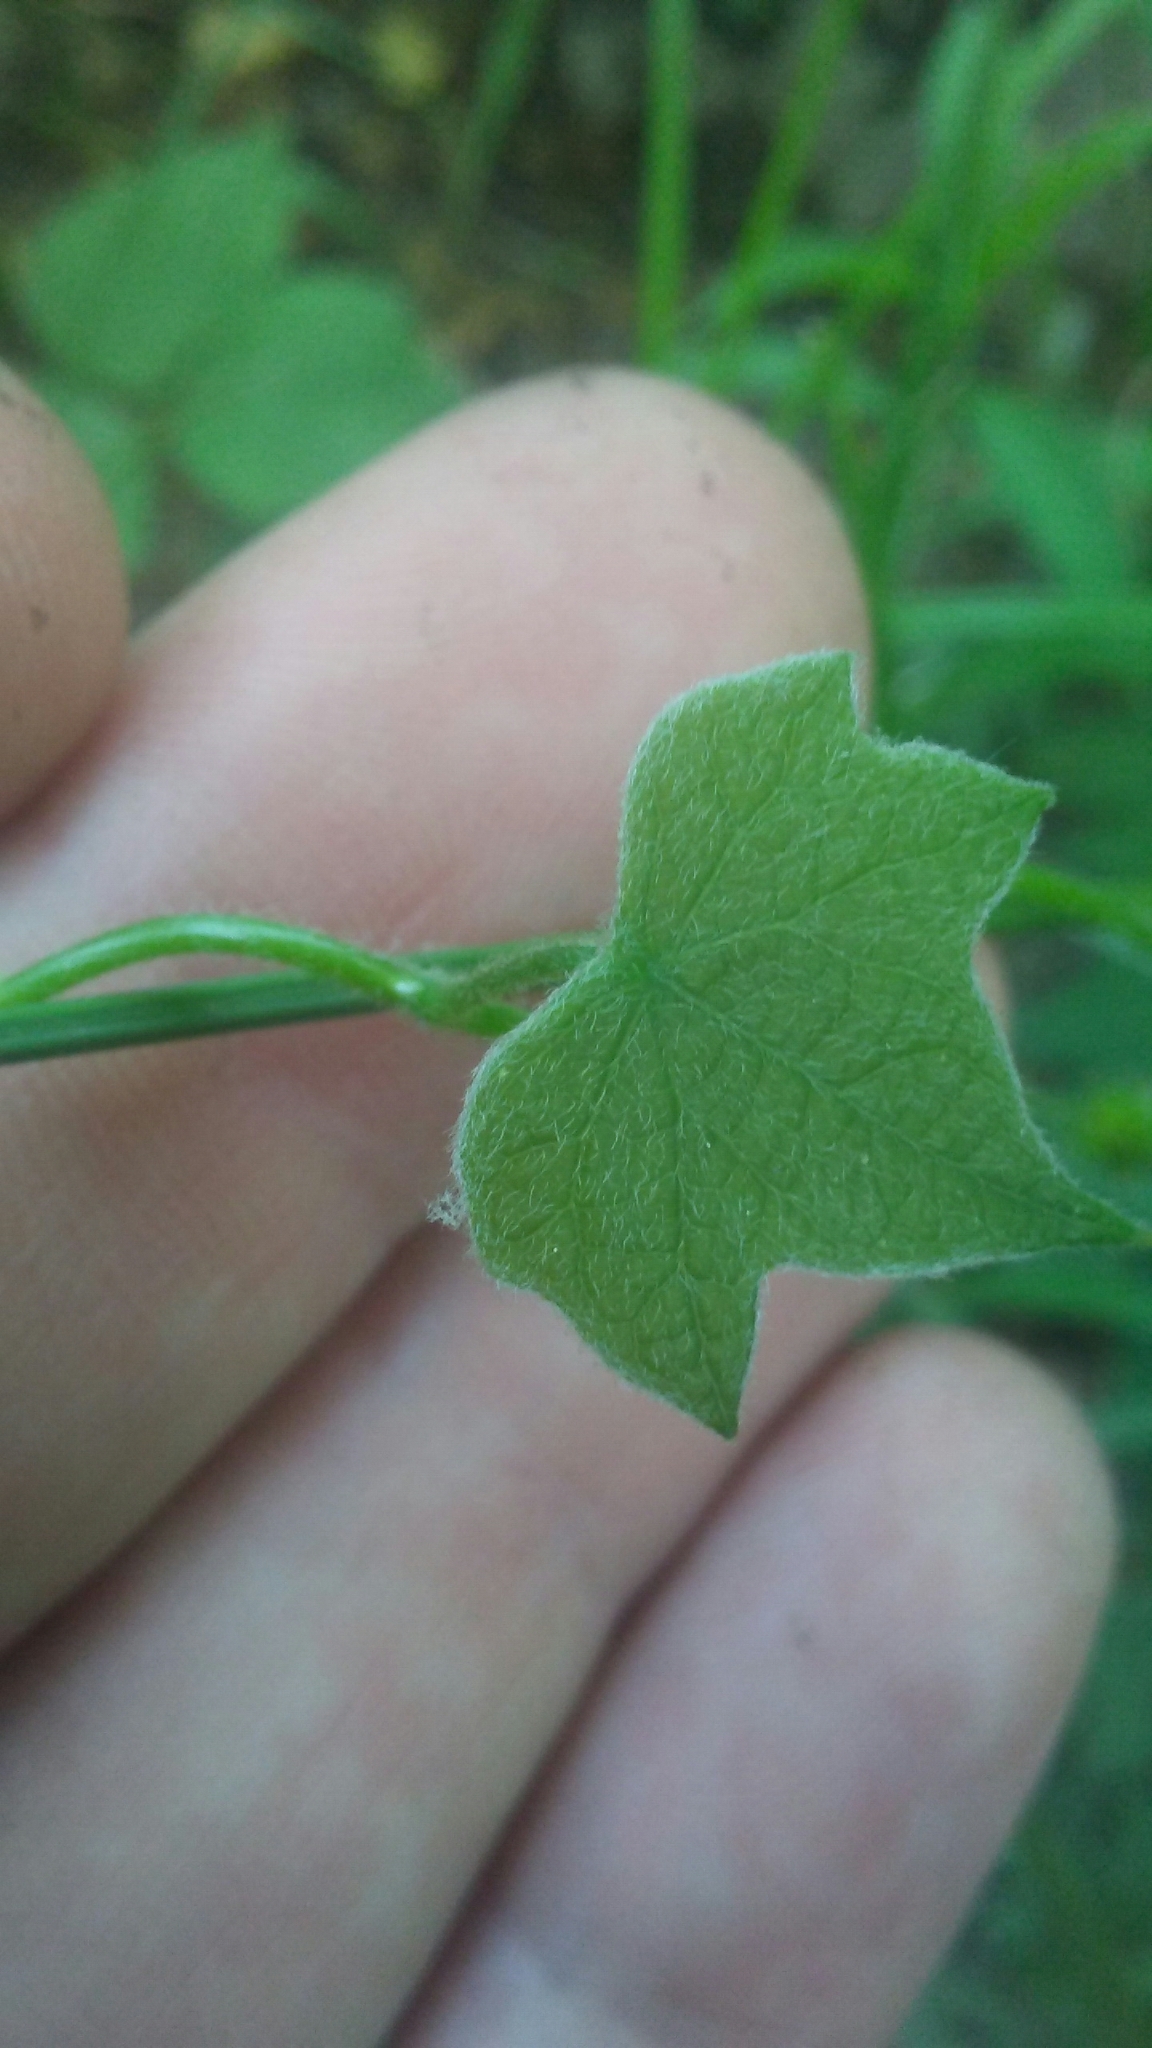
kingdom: Plantae
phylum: Tracheophyta
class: Magnoliopsida
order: Ranunculales
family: Menispermaceae
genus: Menispermum
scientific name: Menispermum canadense
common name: Moonseed
